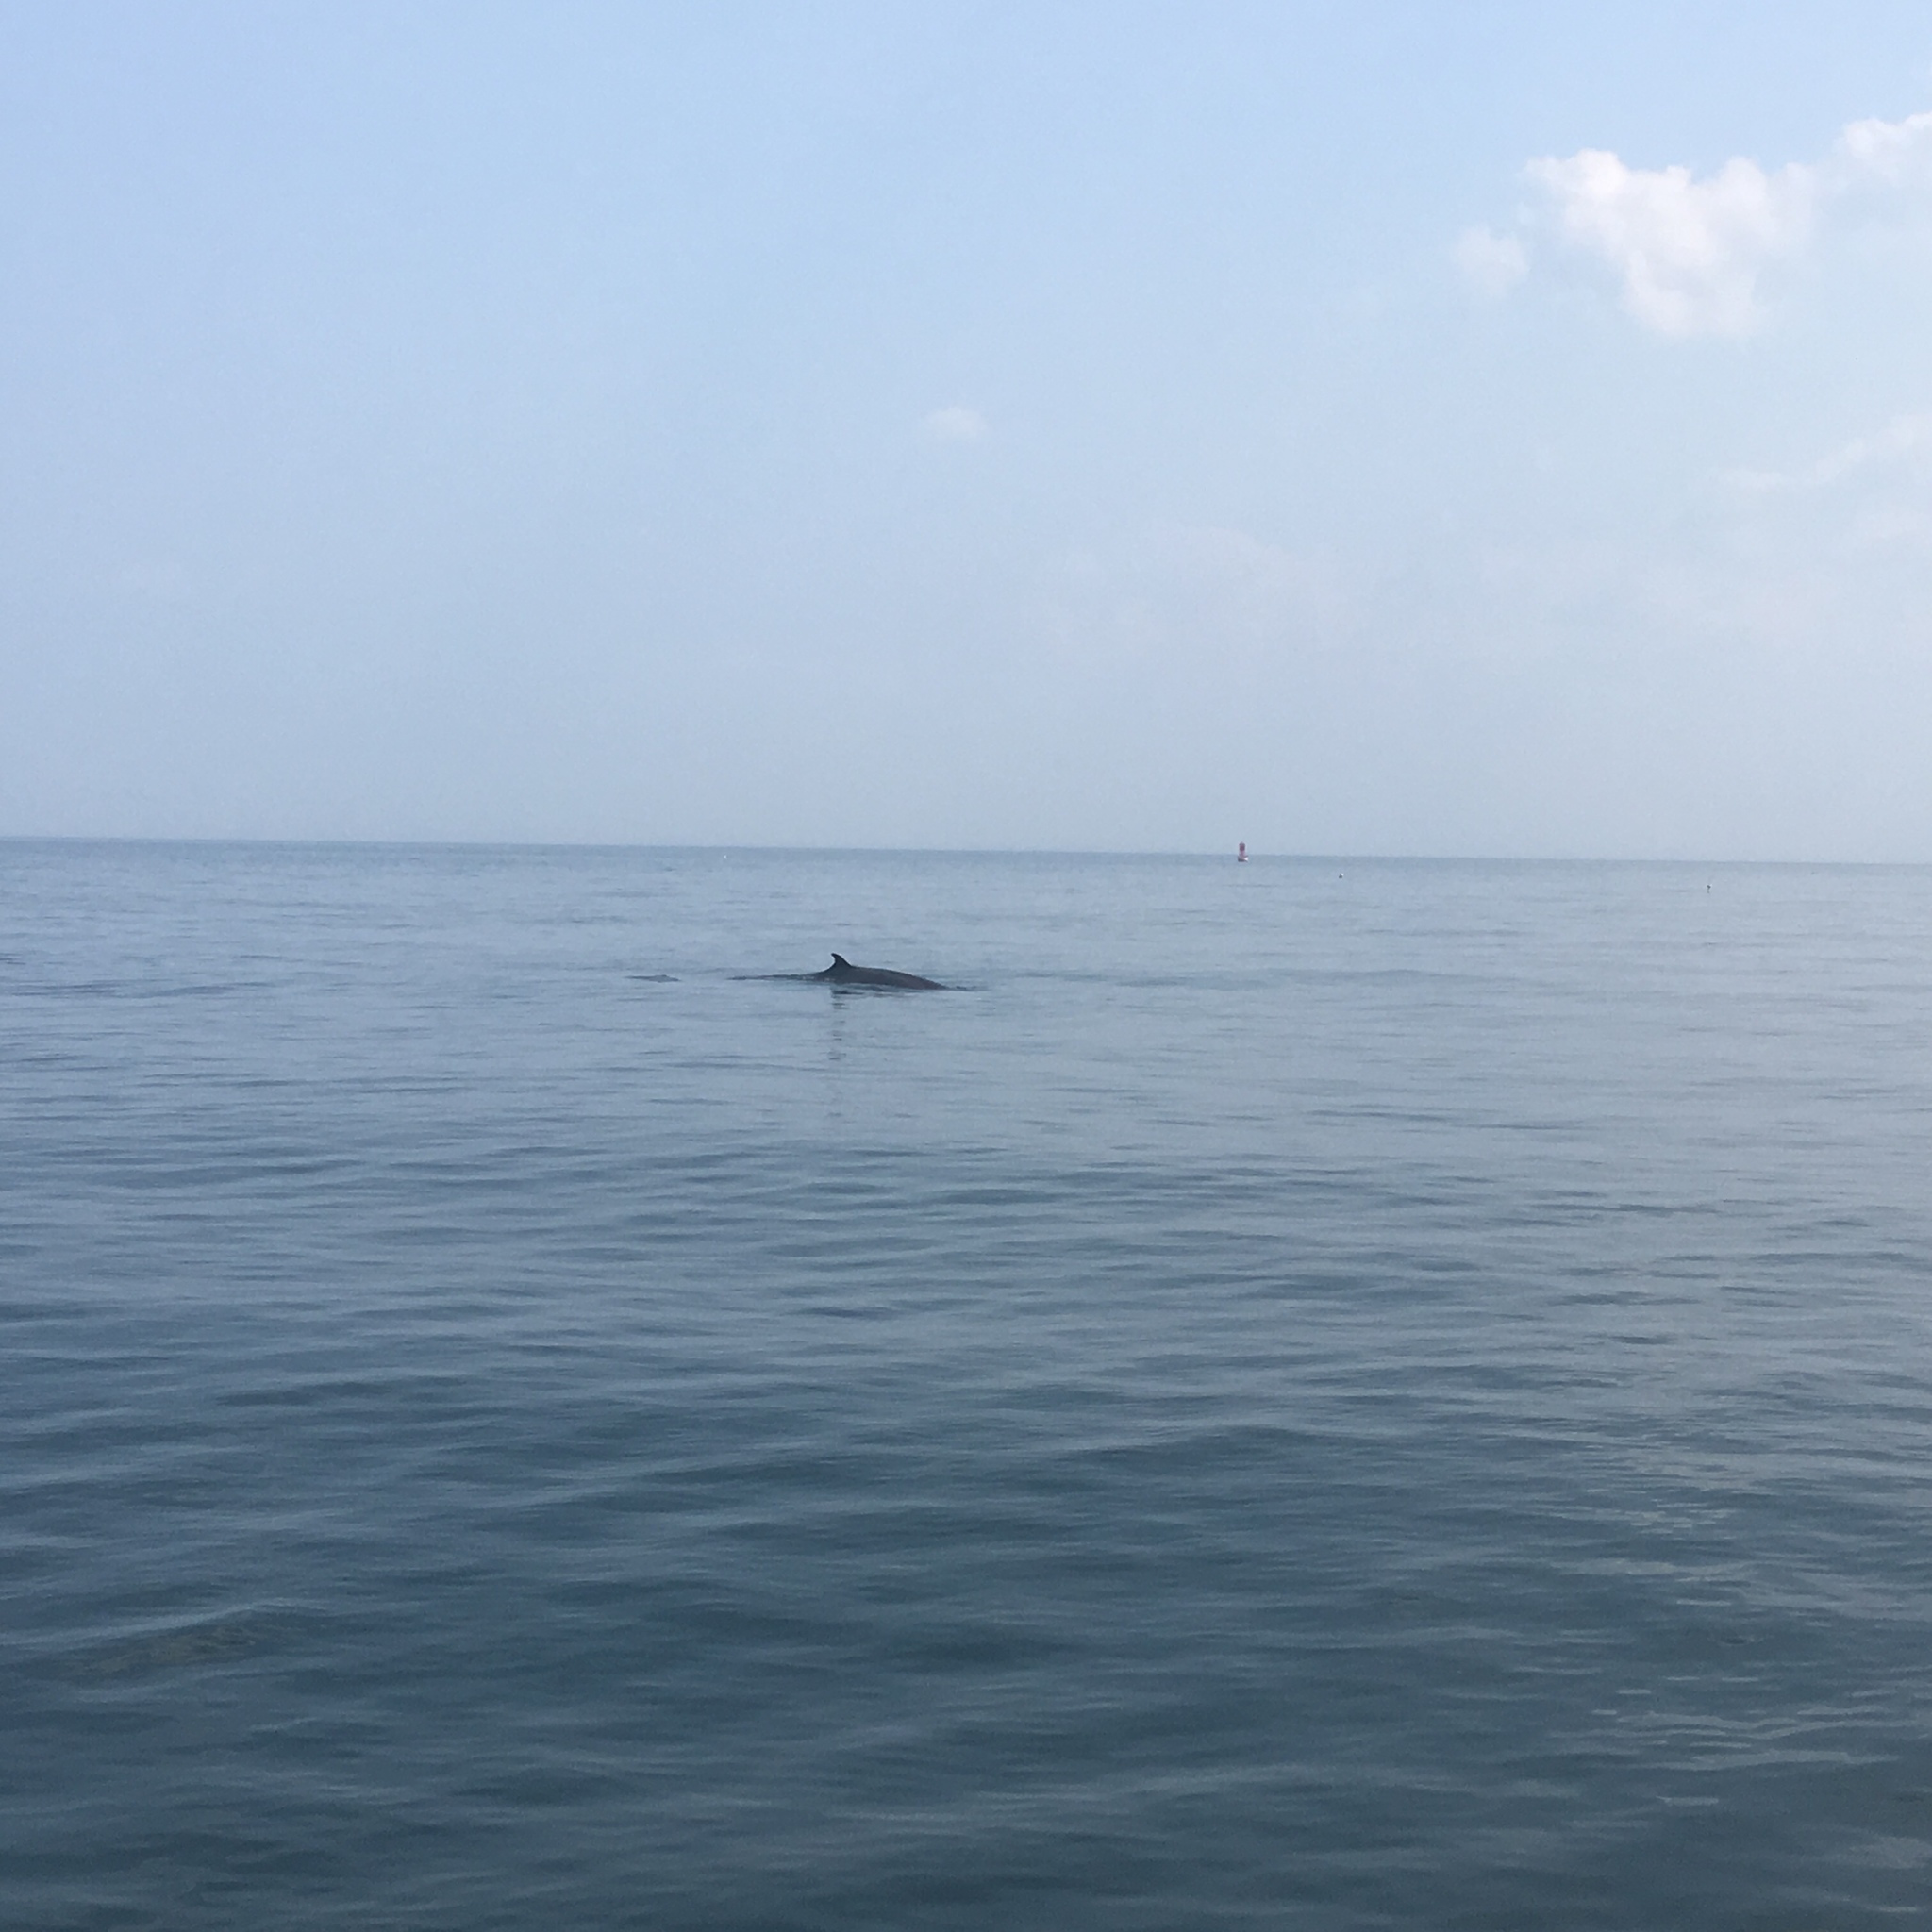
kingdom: Animalia
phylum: Chordata
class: Mammalia
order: Cetacea
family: Balaenopteridae
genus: Balaenoptera
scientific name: Balaenoptera acutorostrata
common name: Common minke whale
